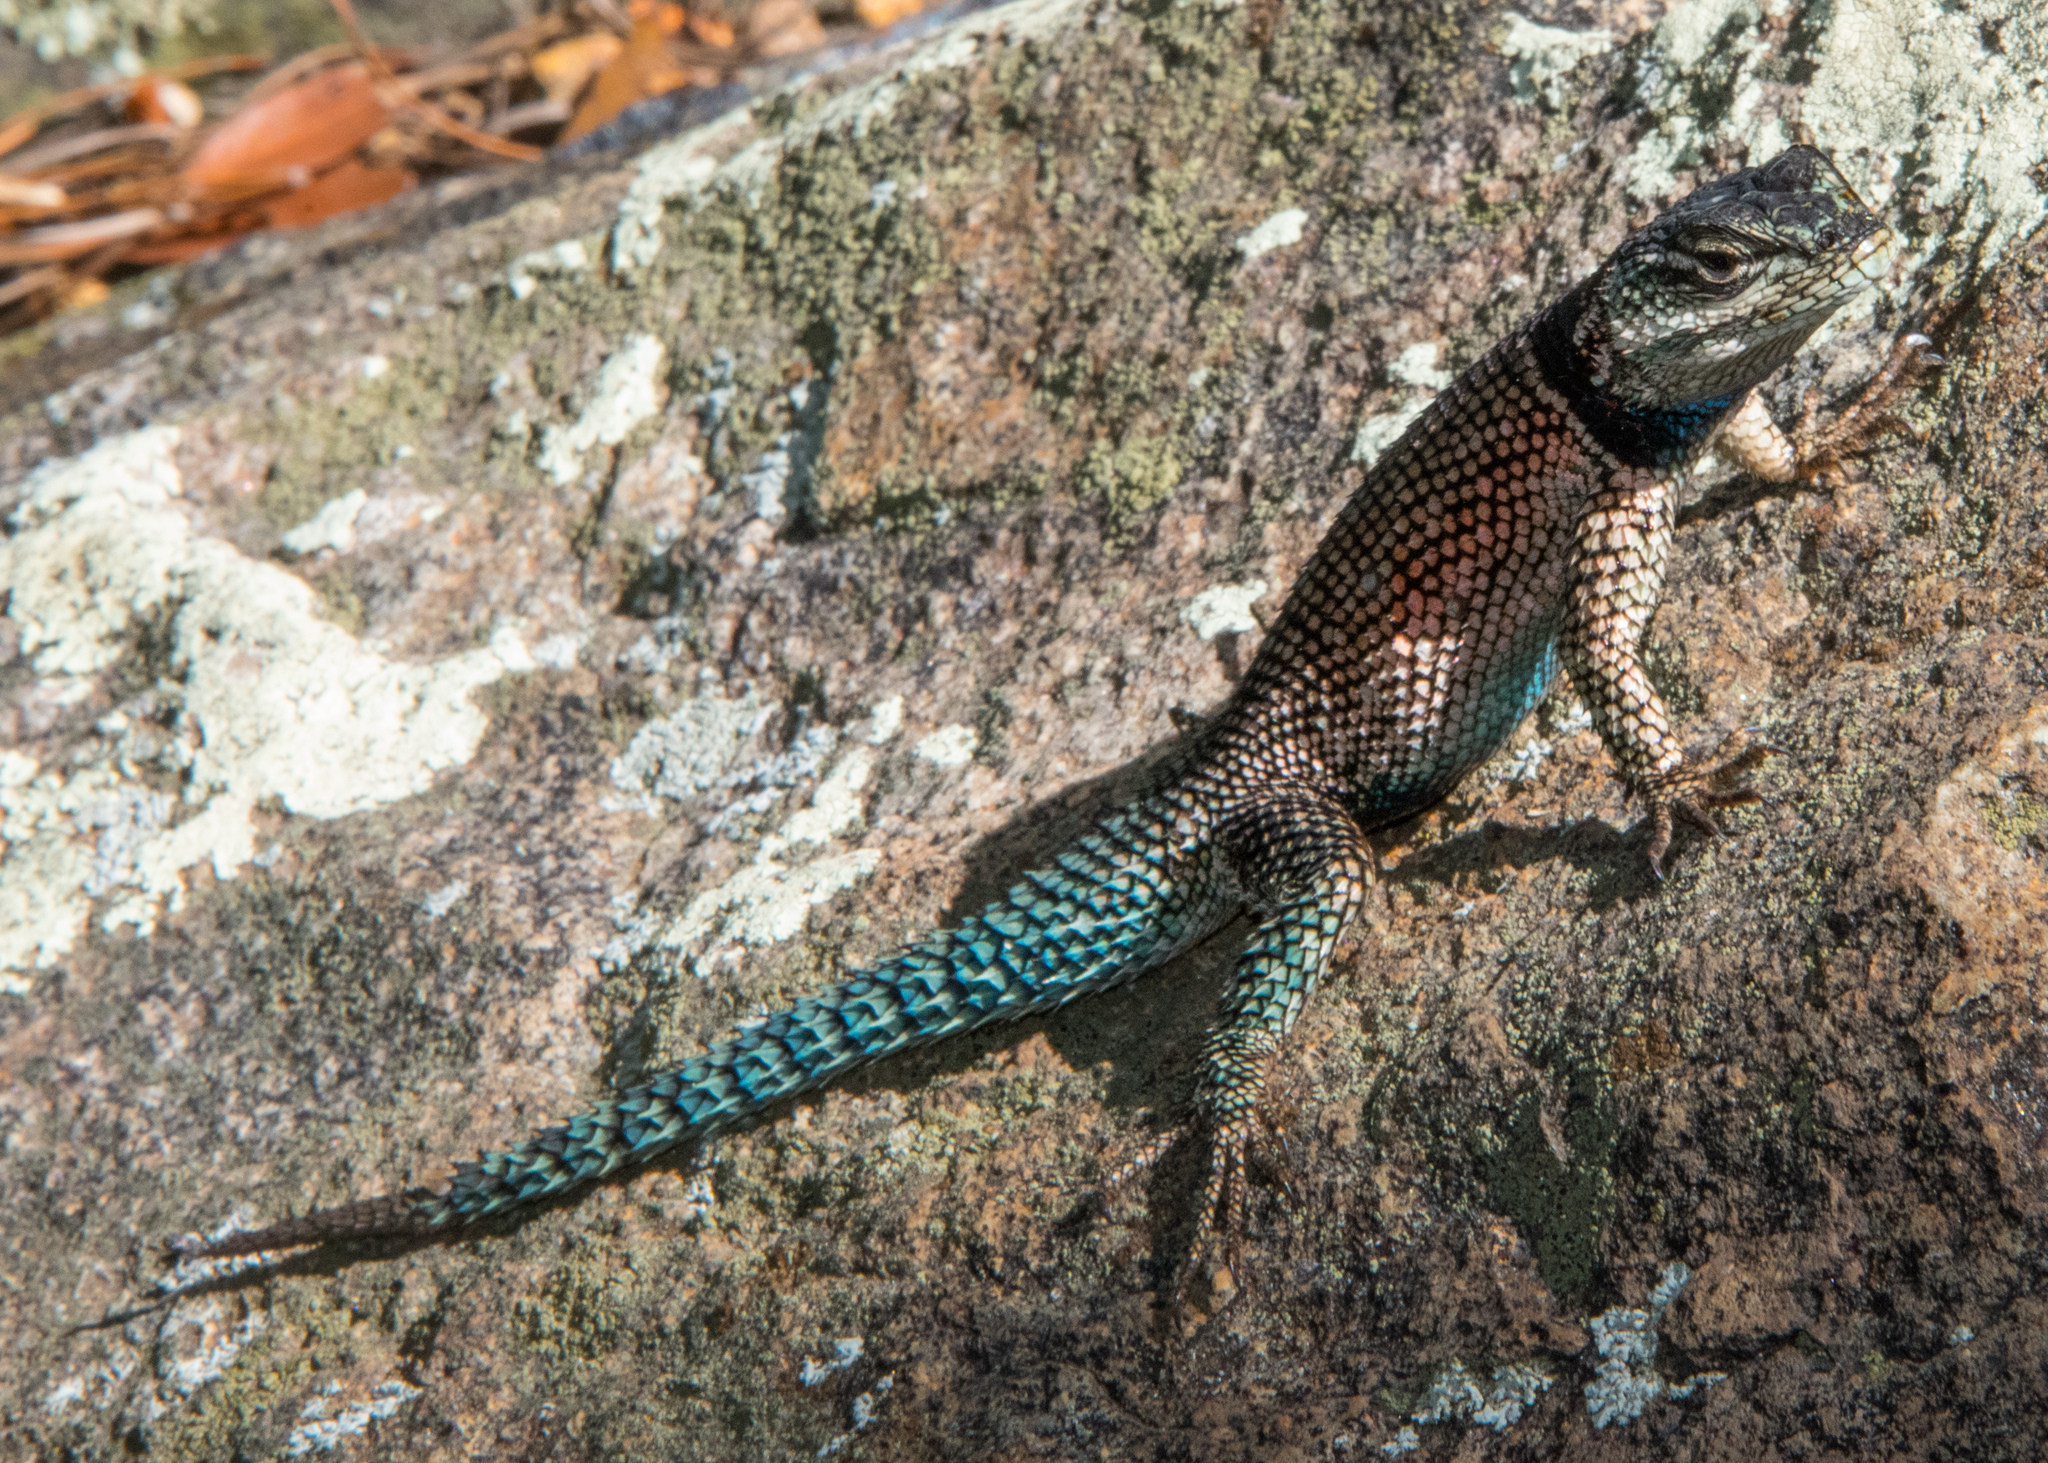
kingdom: Animalia
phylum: Chordata
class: Squamata
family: Phrynosomatidae
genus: Sceloporus
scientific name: Sceloporus jarrovii
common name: Yarrow's spiny lizard
